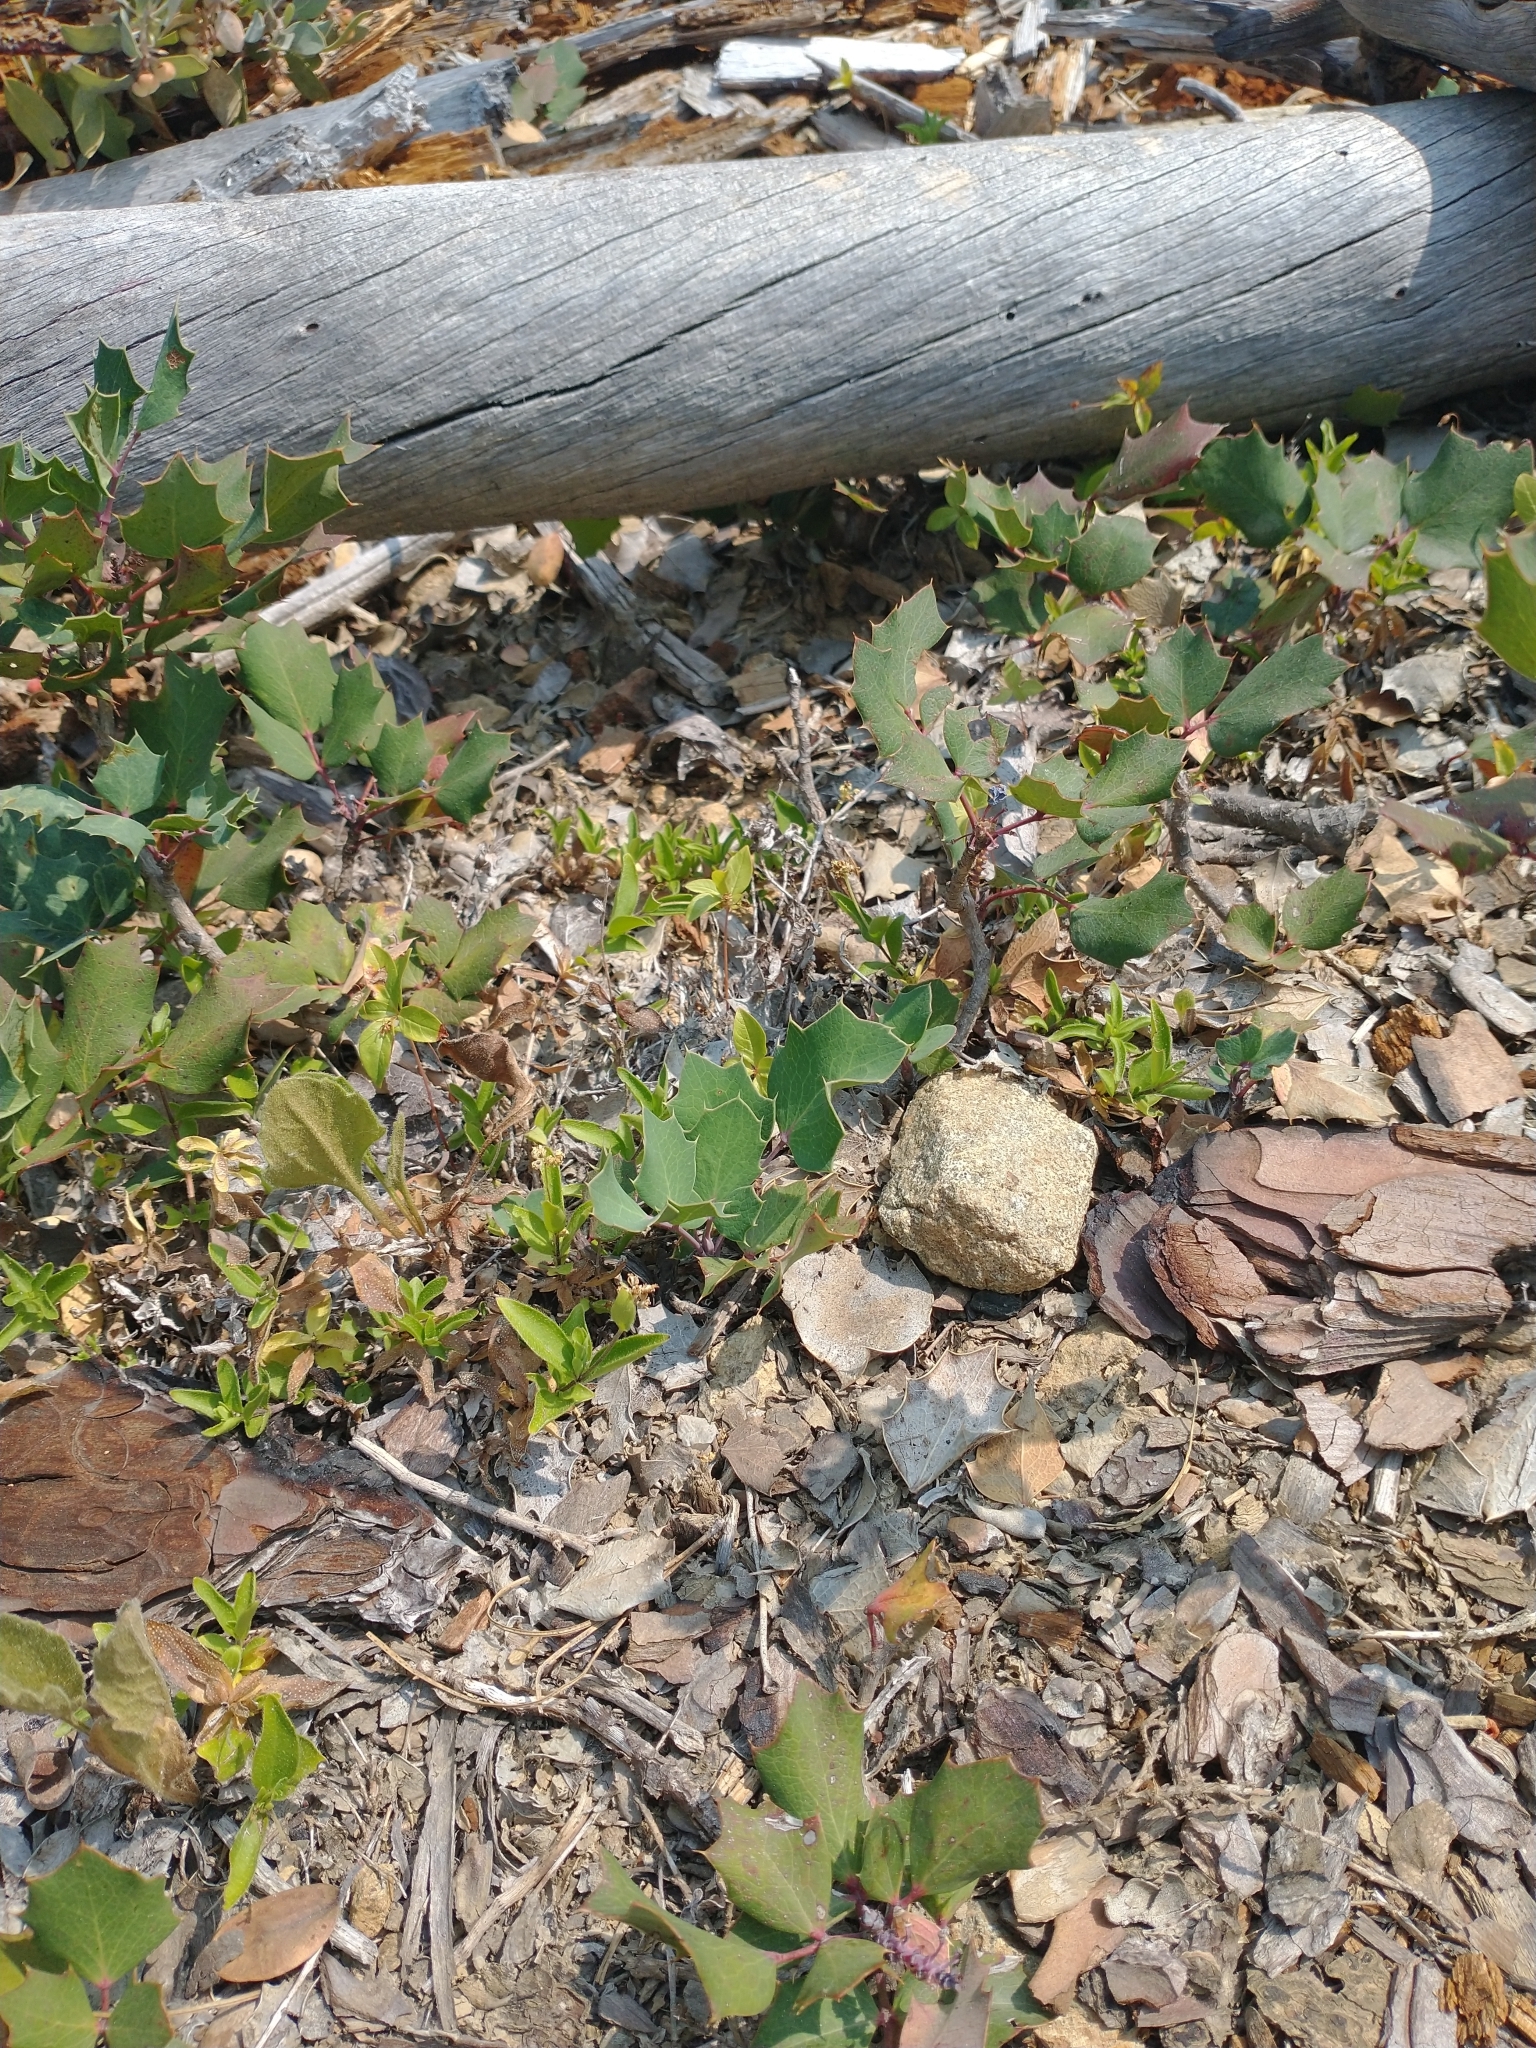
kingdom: Plantae
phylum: Tracheophyta
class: Magnoliopsida
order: Ranunculales
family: Berberidaceae
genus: Mahonia
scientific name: Mahonia repens
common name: Creeping oregon-grape
